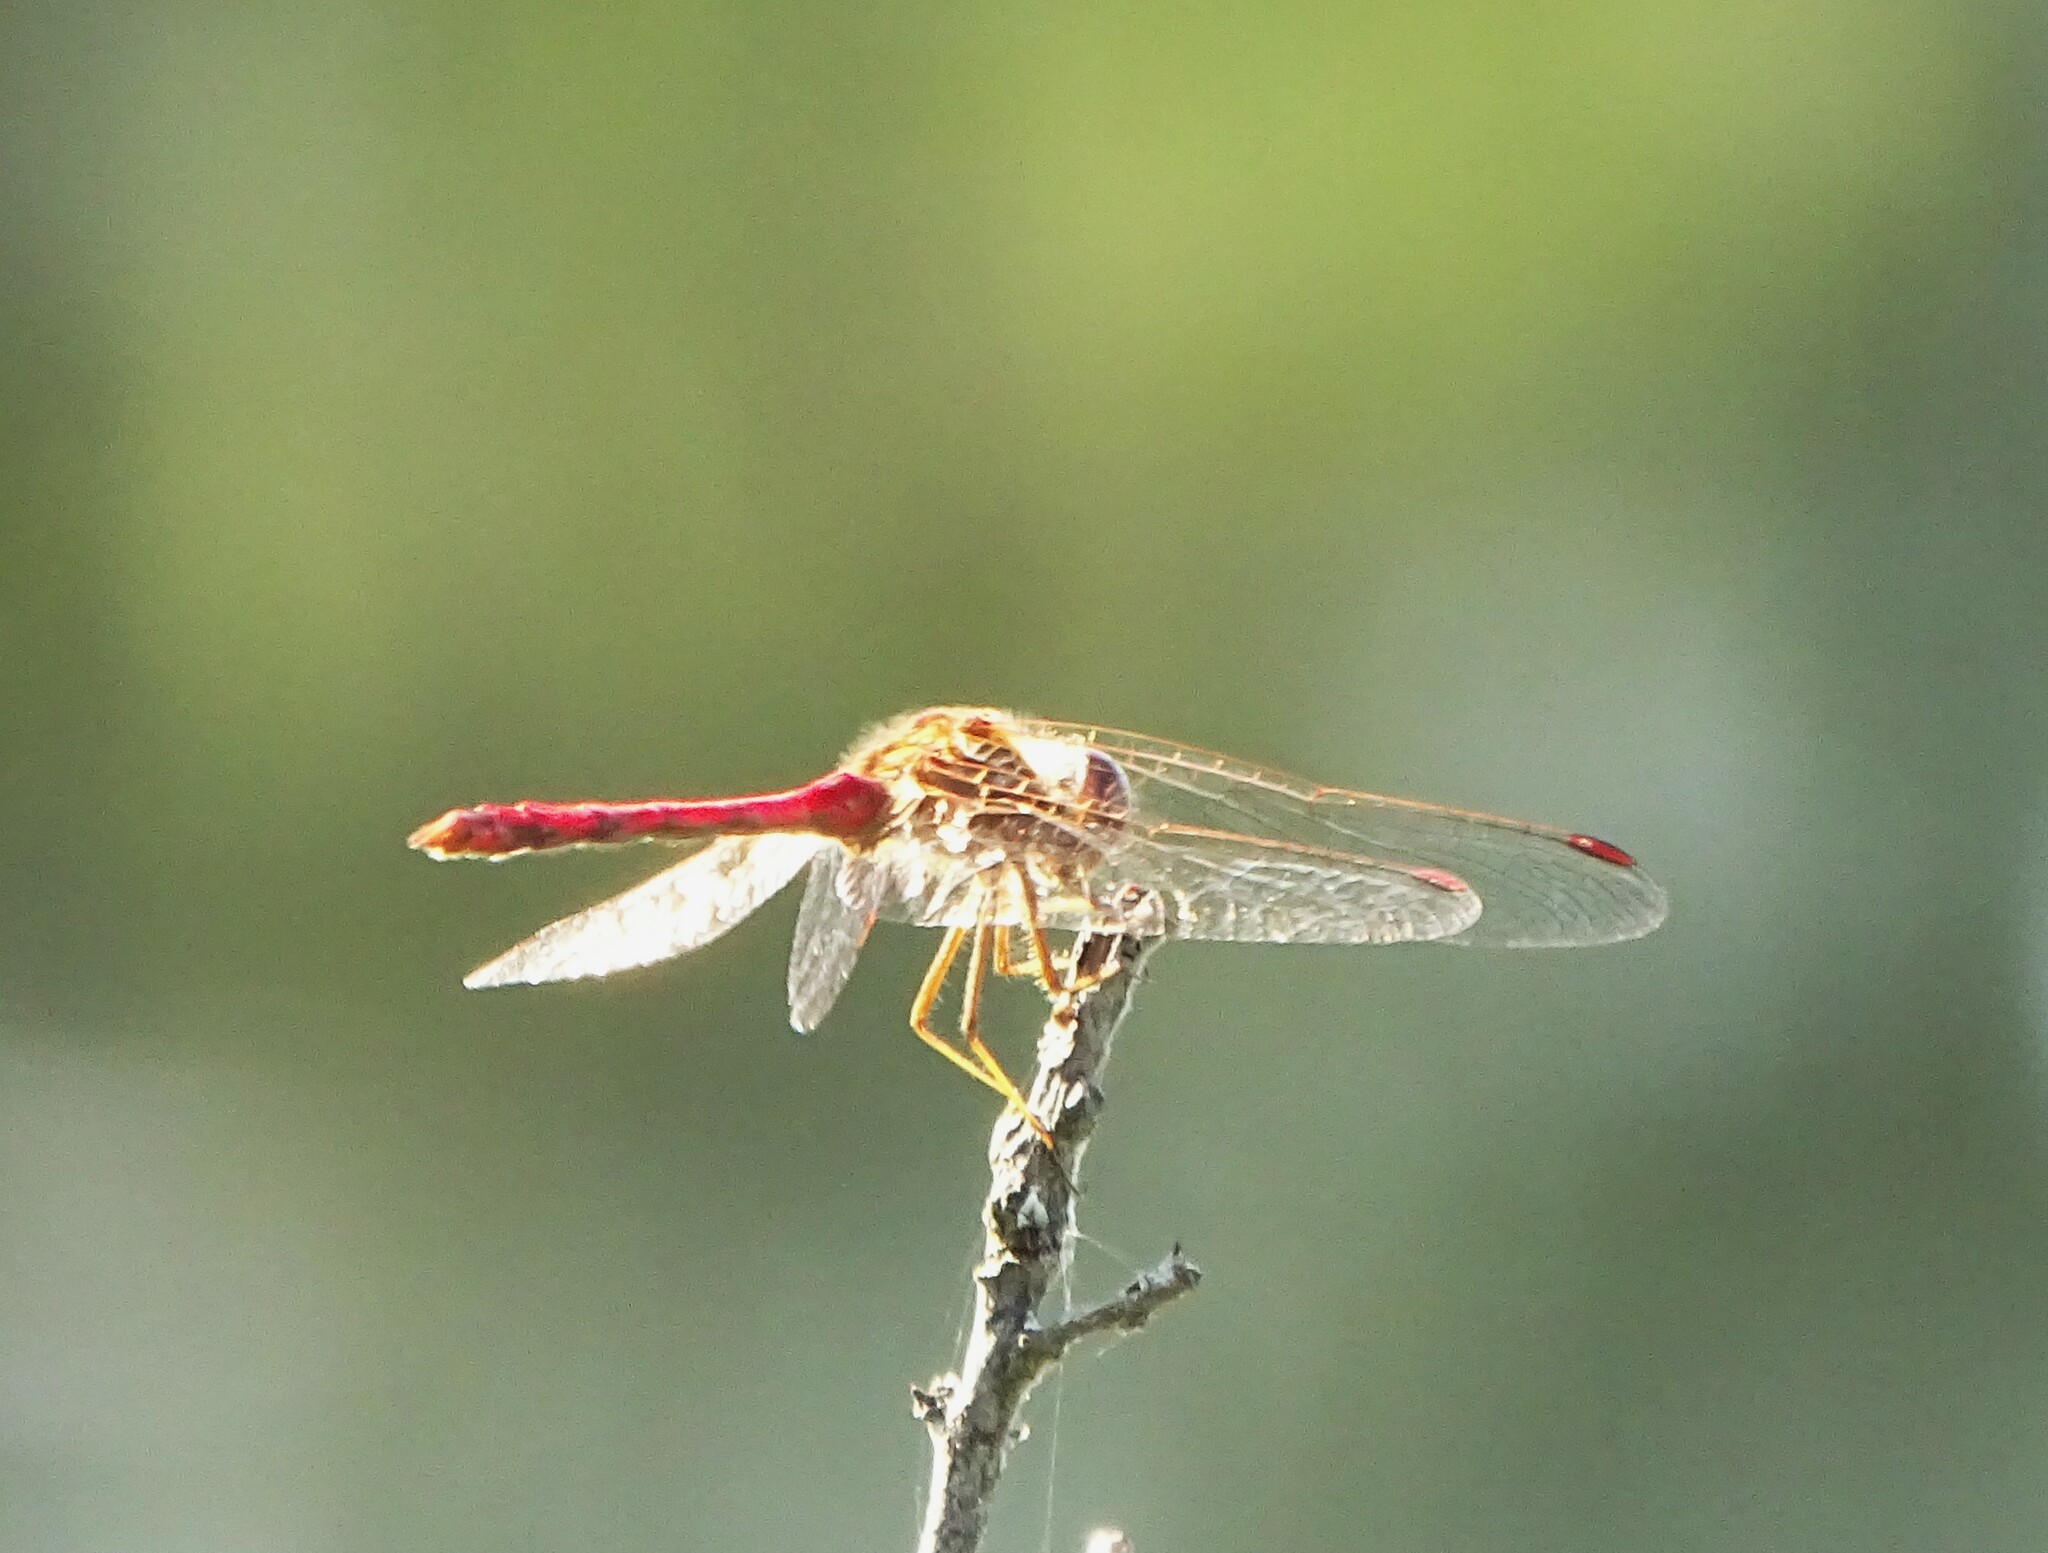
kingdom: Animalia
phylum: Arthropoda
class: Insecta
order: Odonata
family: Libellulidae
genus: Sympetrum
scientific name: Sympetrum vicinum
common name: Autumn meadowhawk
